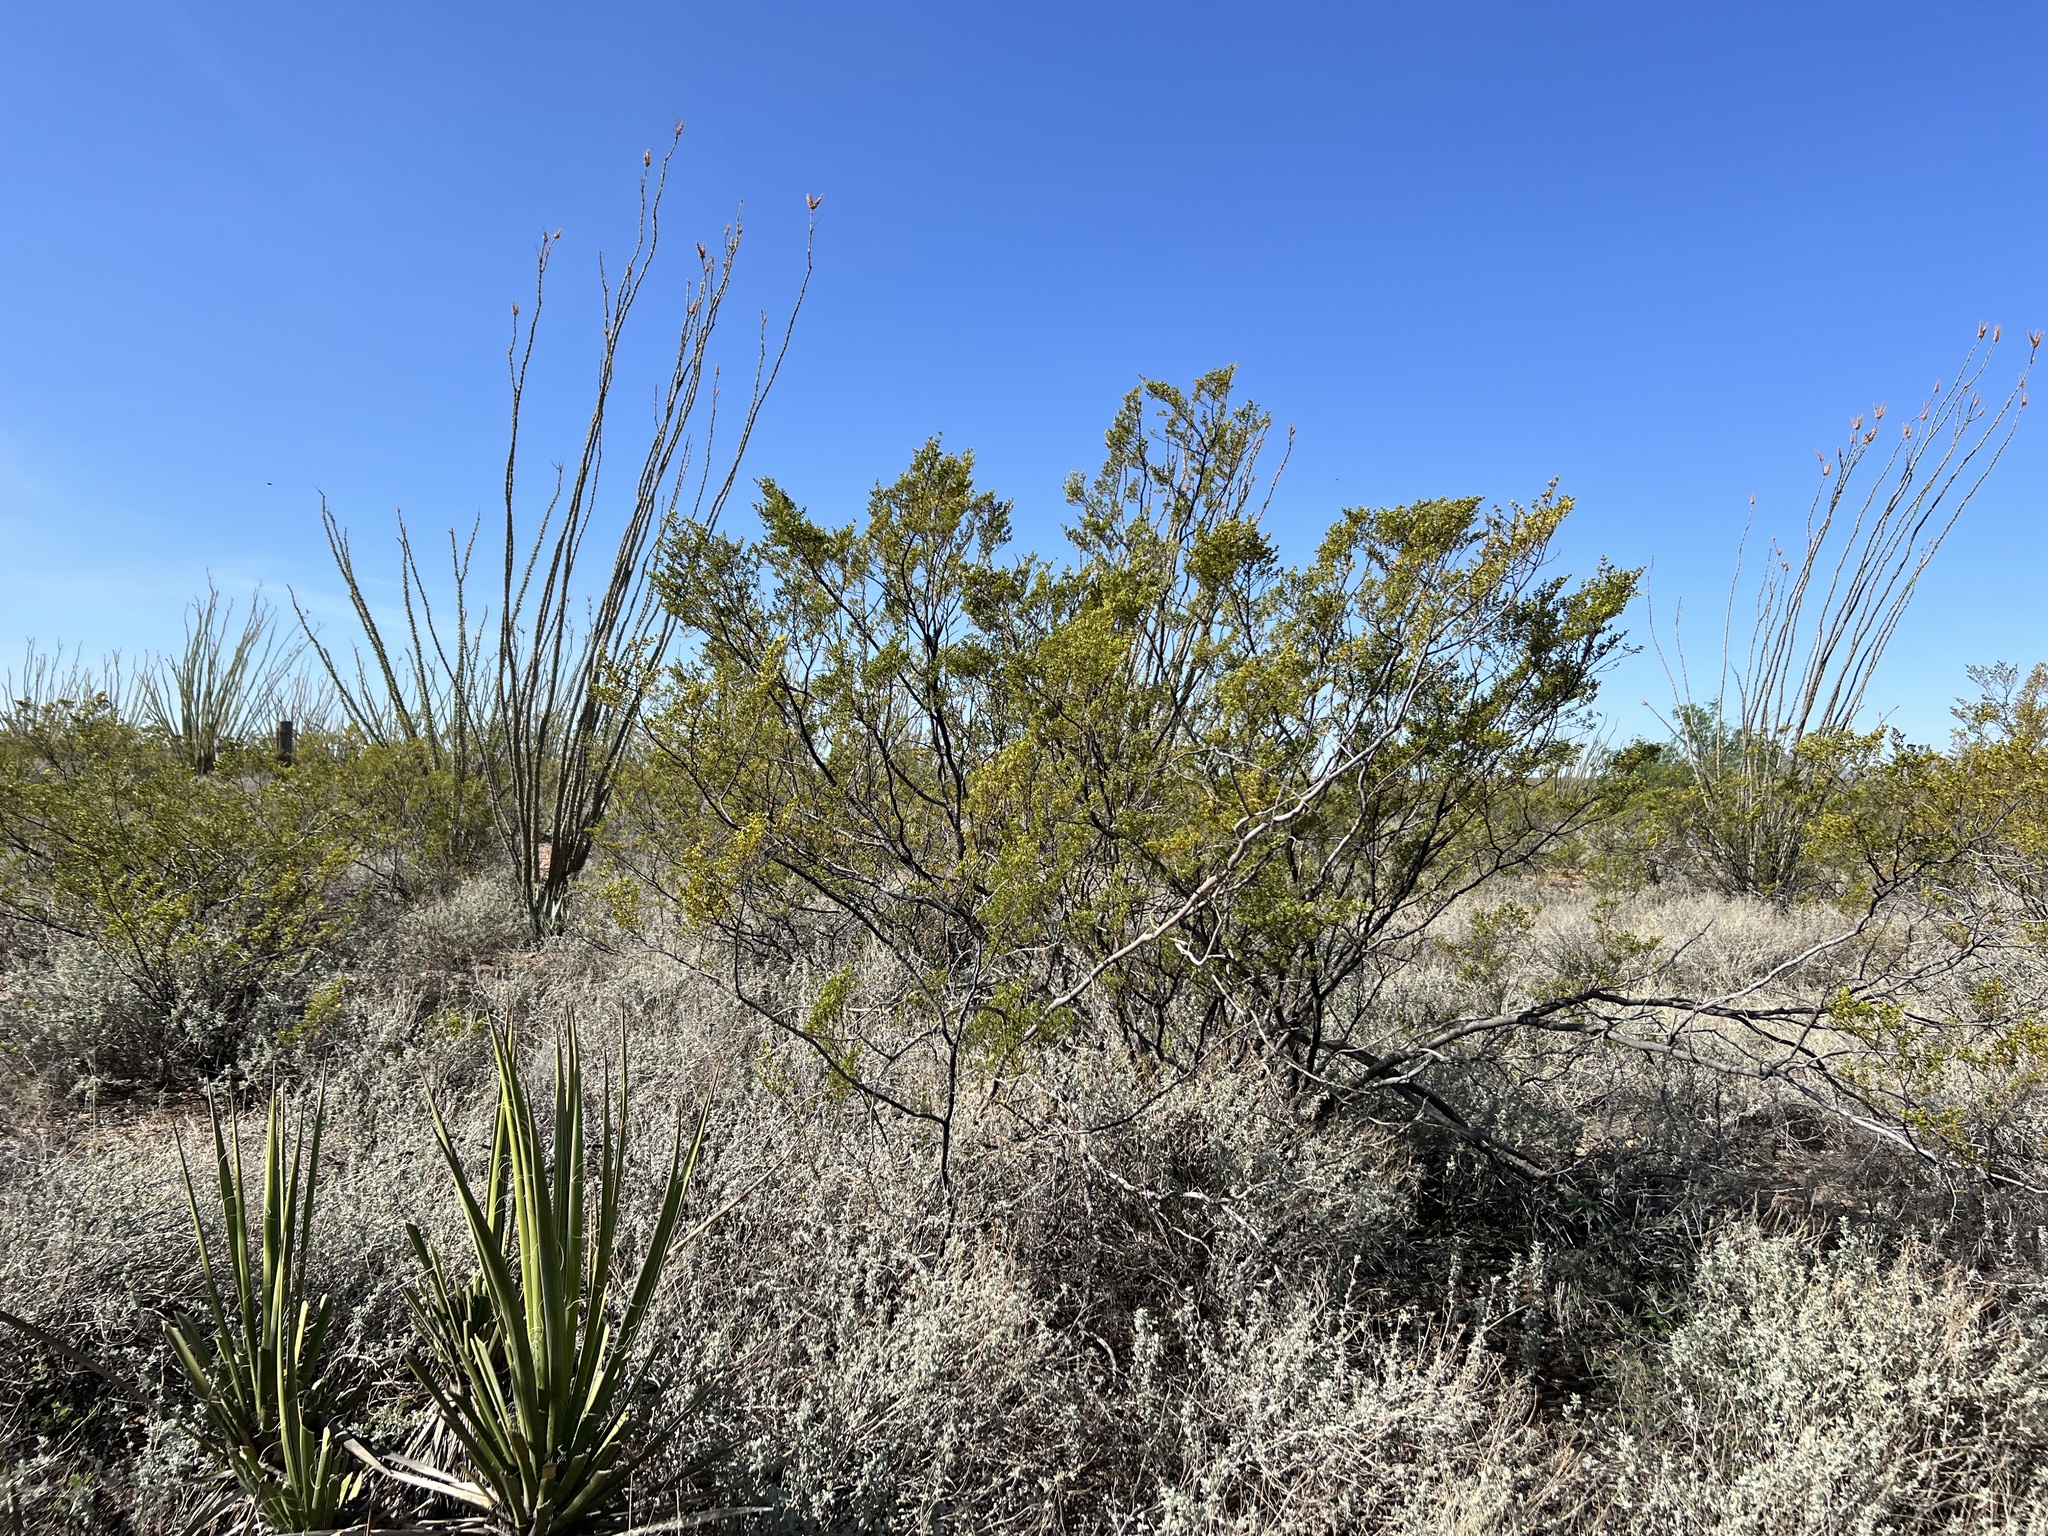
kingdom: Plantae
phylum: Tracheophyta
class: Magnoliopsida
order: Zygophyllales
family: Zygophyllaceae
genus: Larrea
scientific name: Larrea tridentata
